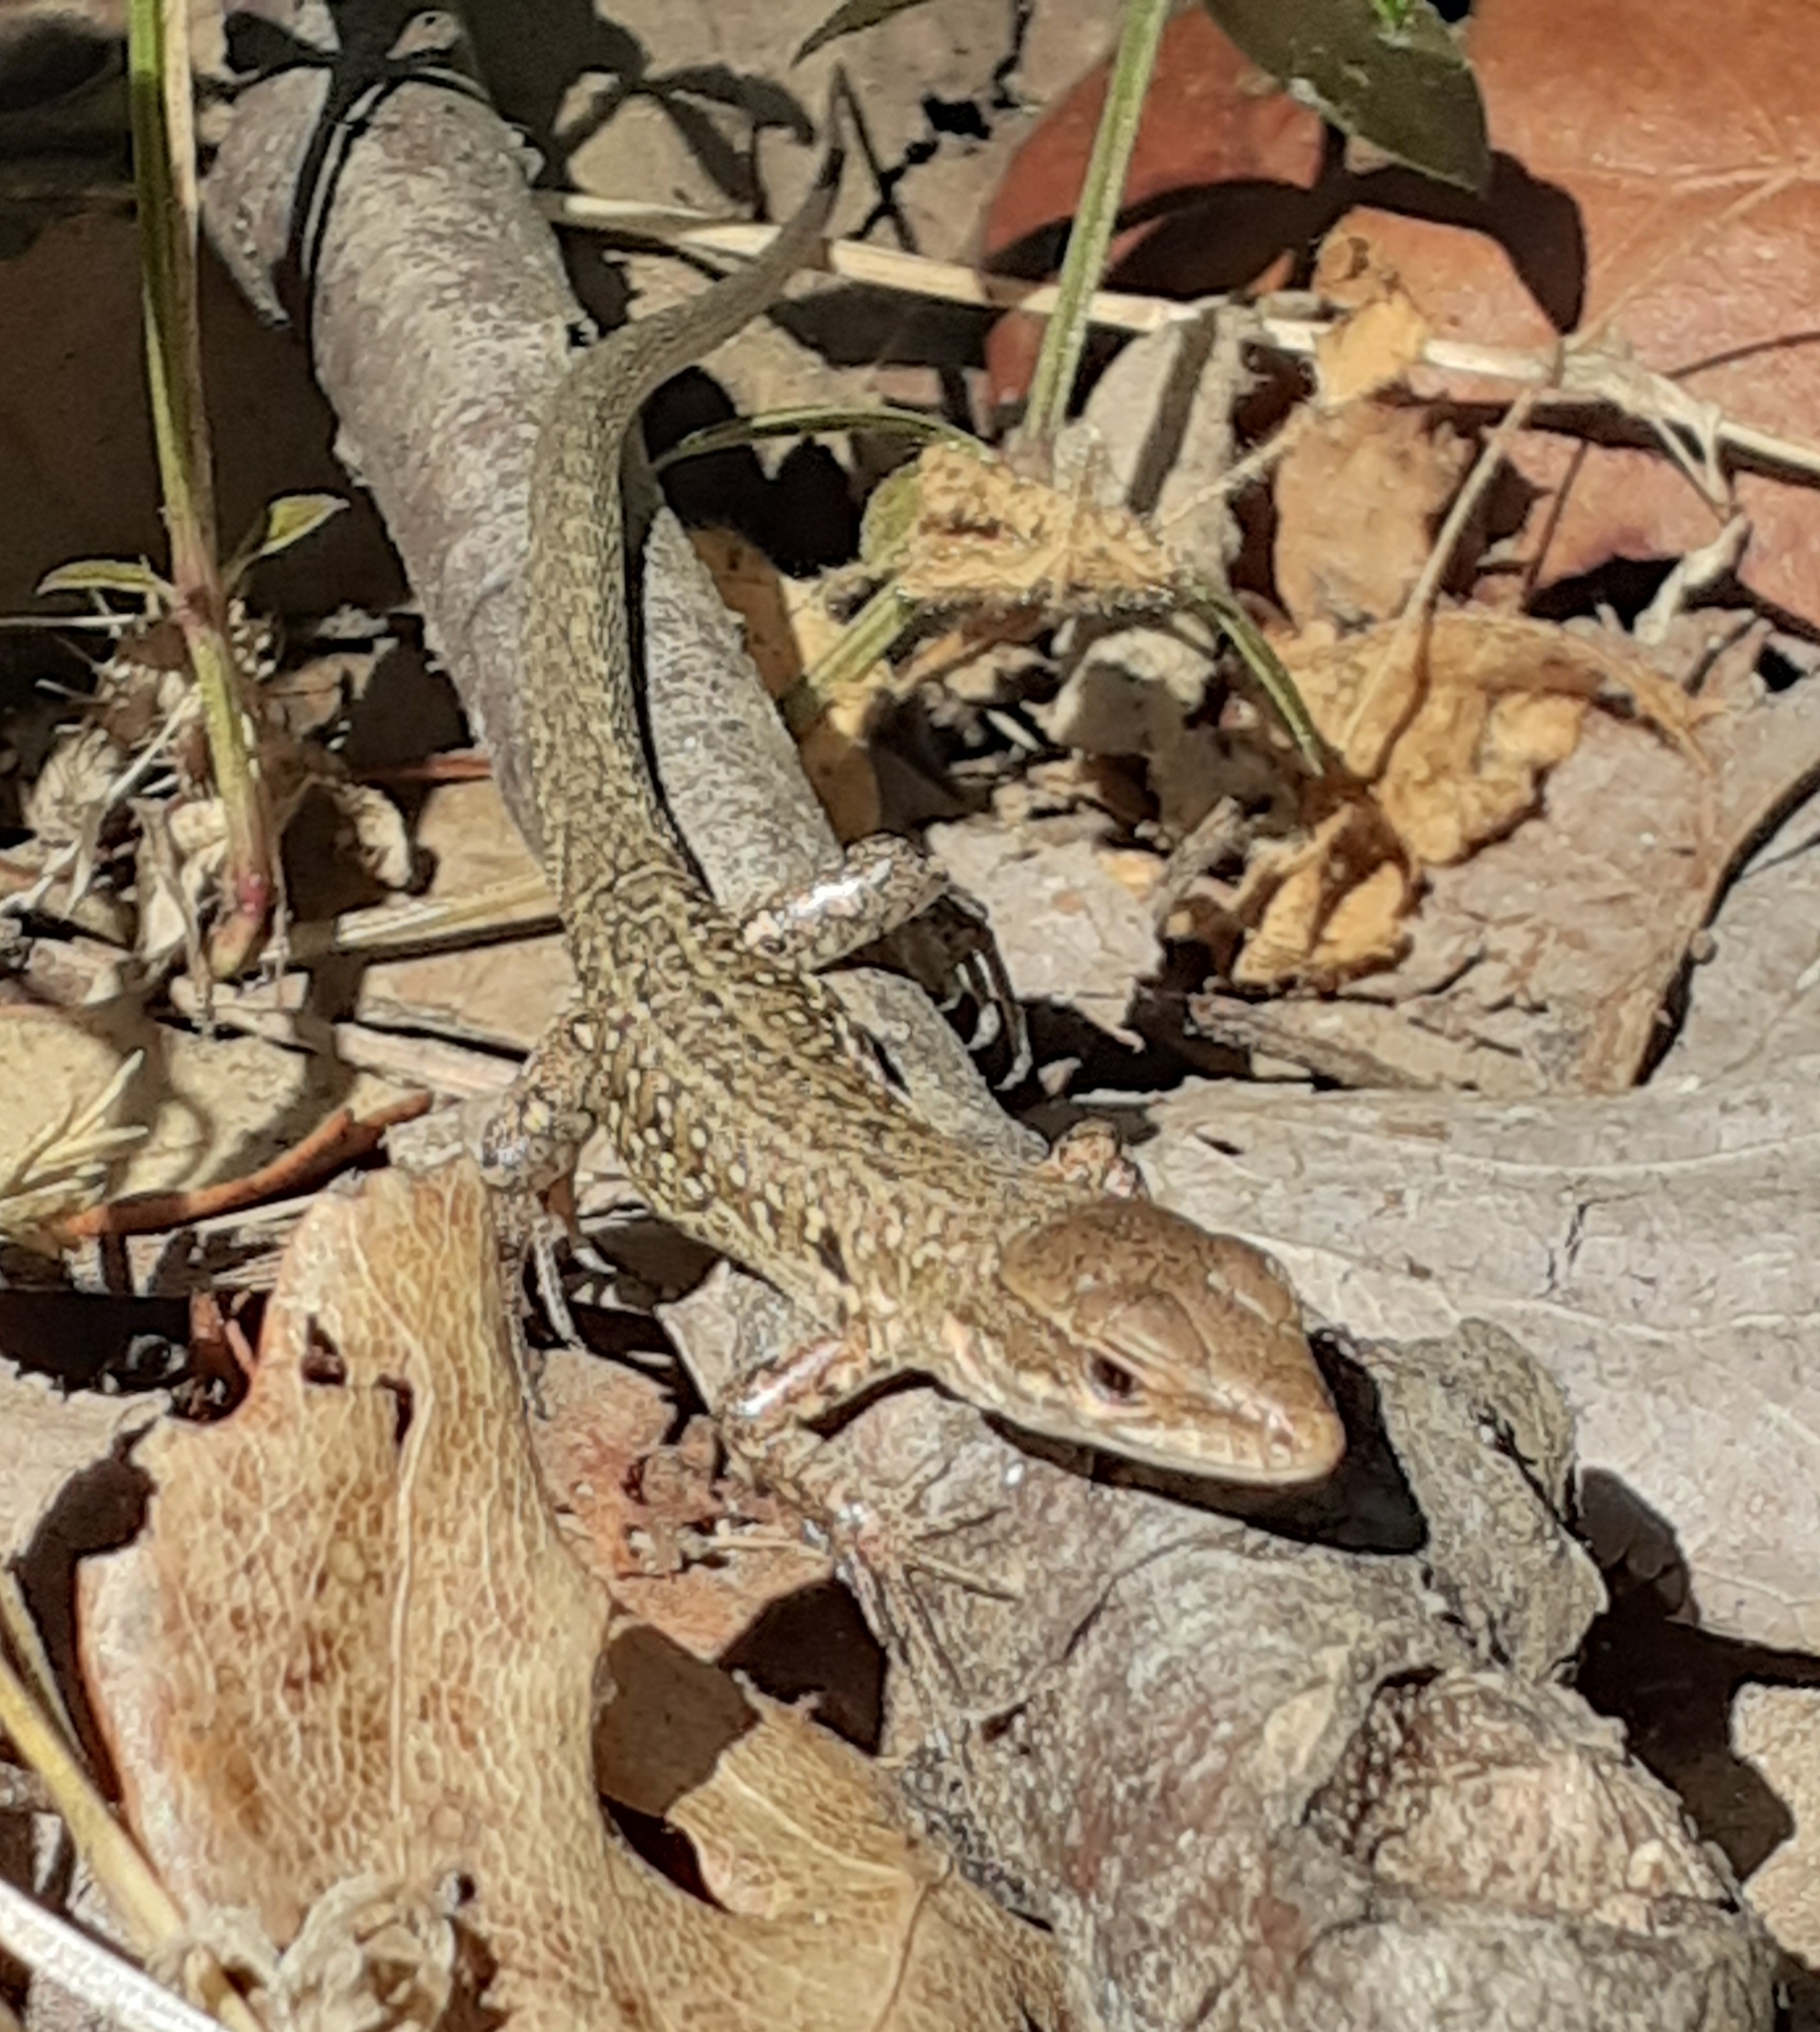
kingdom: Animalia
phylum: Chordata
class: Squamata
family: Lacertidae
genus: Podarcis
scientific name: Podarcis siculus
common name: Italian wall lizard
